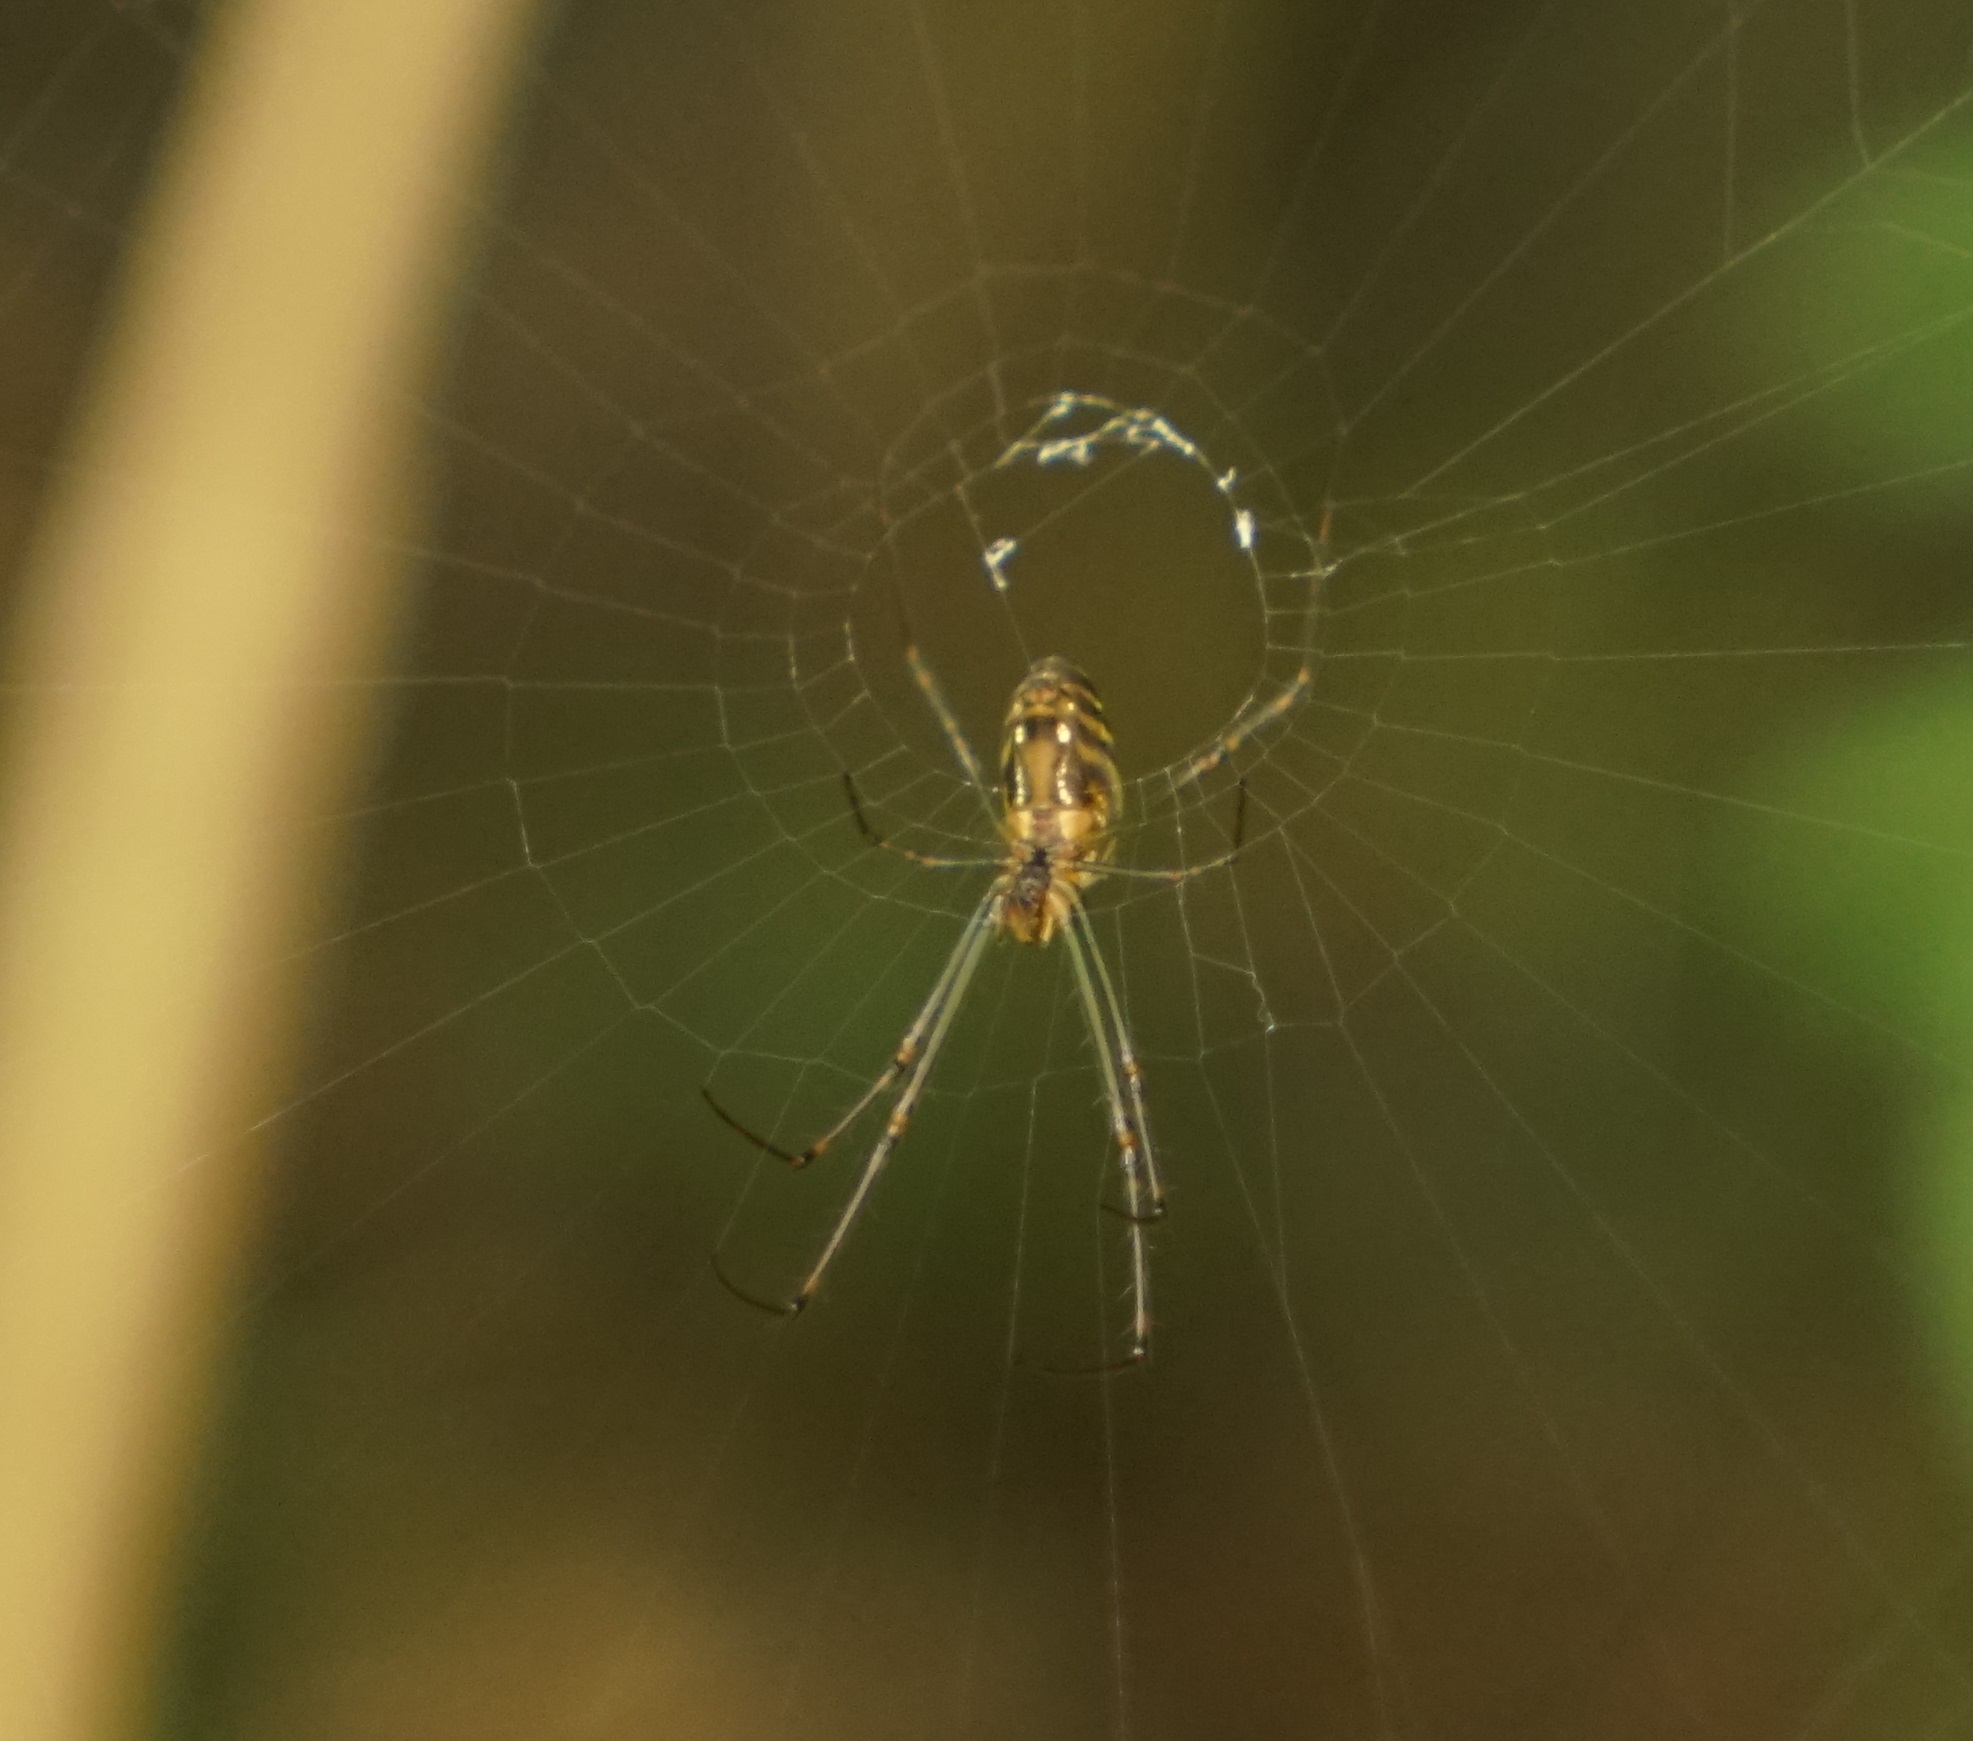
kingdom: Animalia
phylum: Arthropoda
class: Arachnida
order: Araneae
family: Tetragnathidae
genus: Leucauge
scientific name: Leucauge dromedaria
